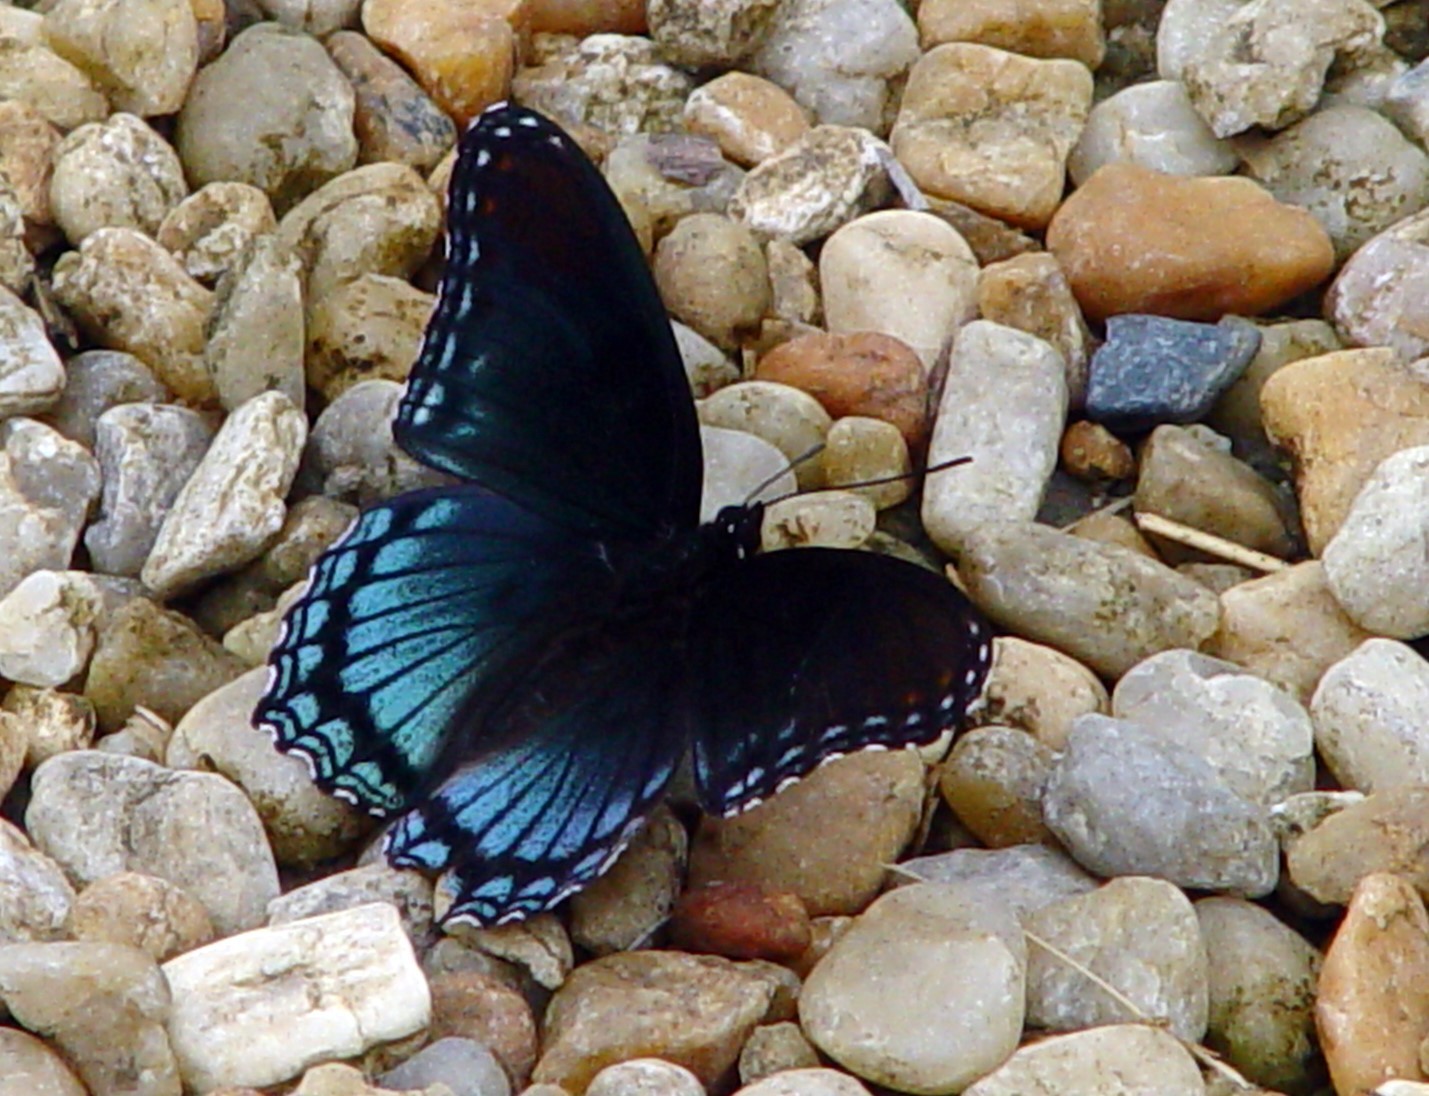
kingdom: Animalia
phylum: Arthropoda
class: Insecta
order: Lepidoptera
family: Nymphalidae
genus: Limenitis
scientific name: Limenitis astyanax
